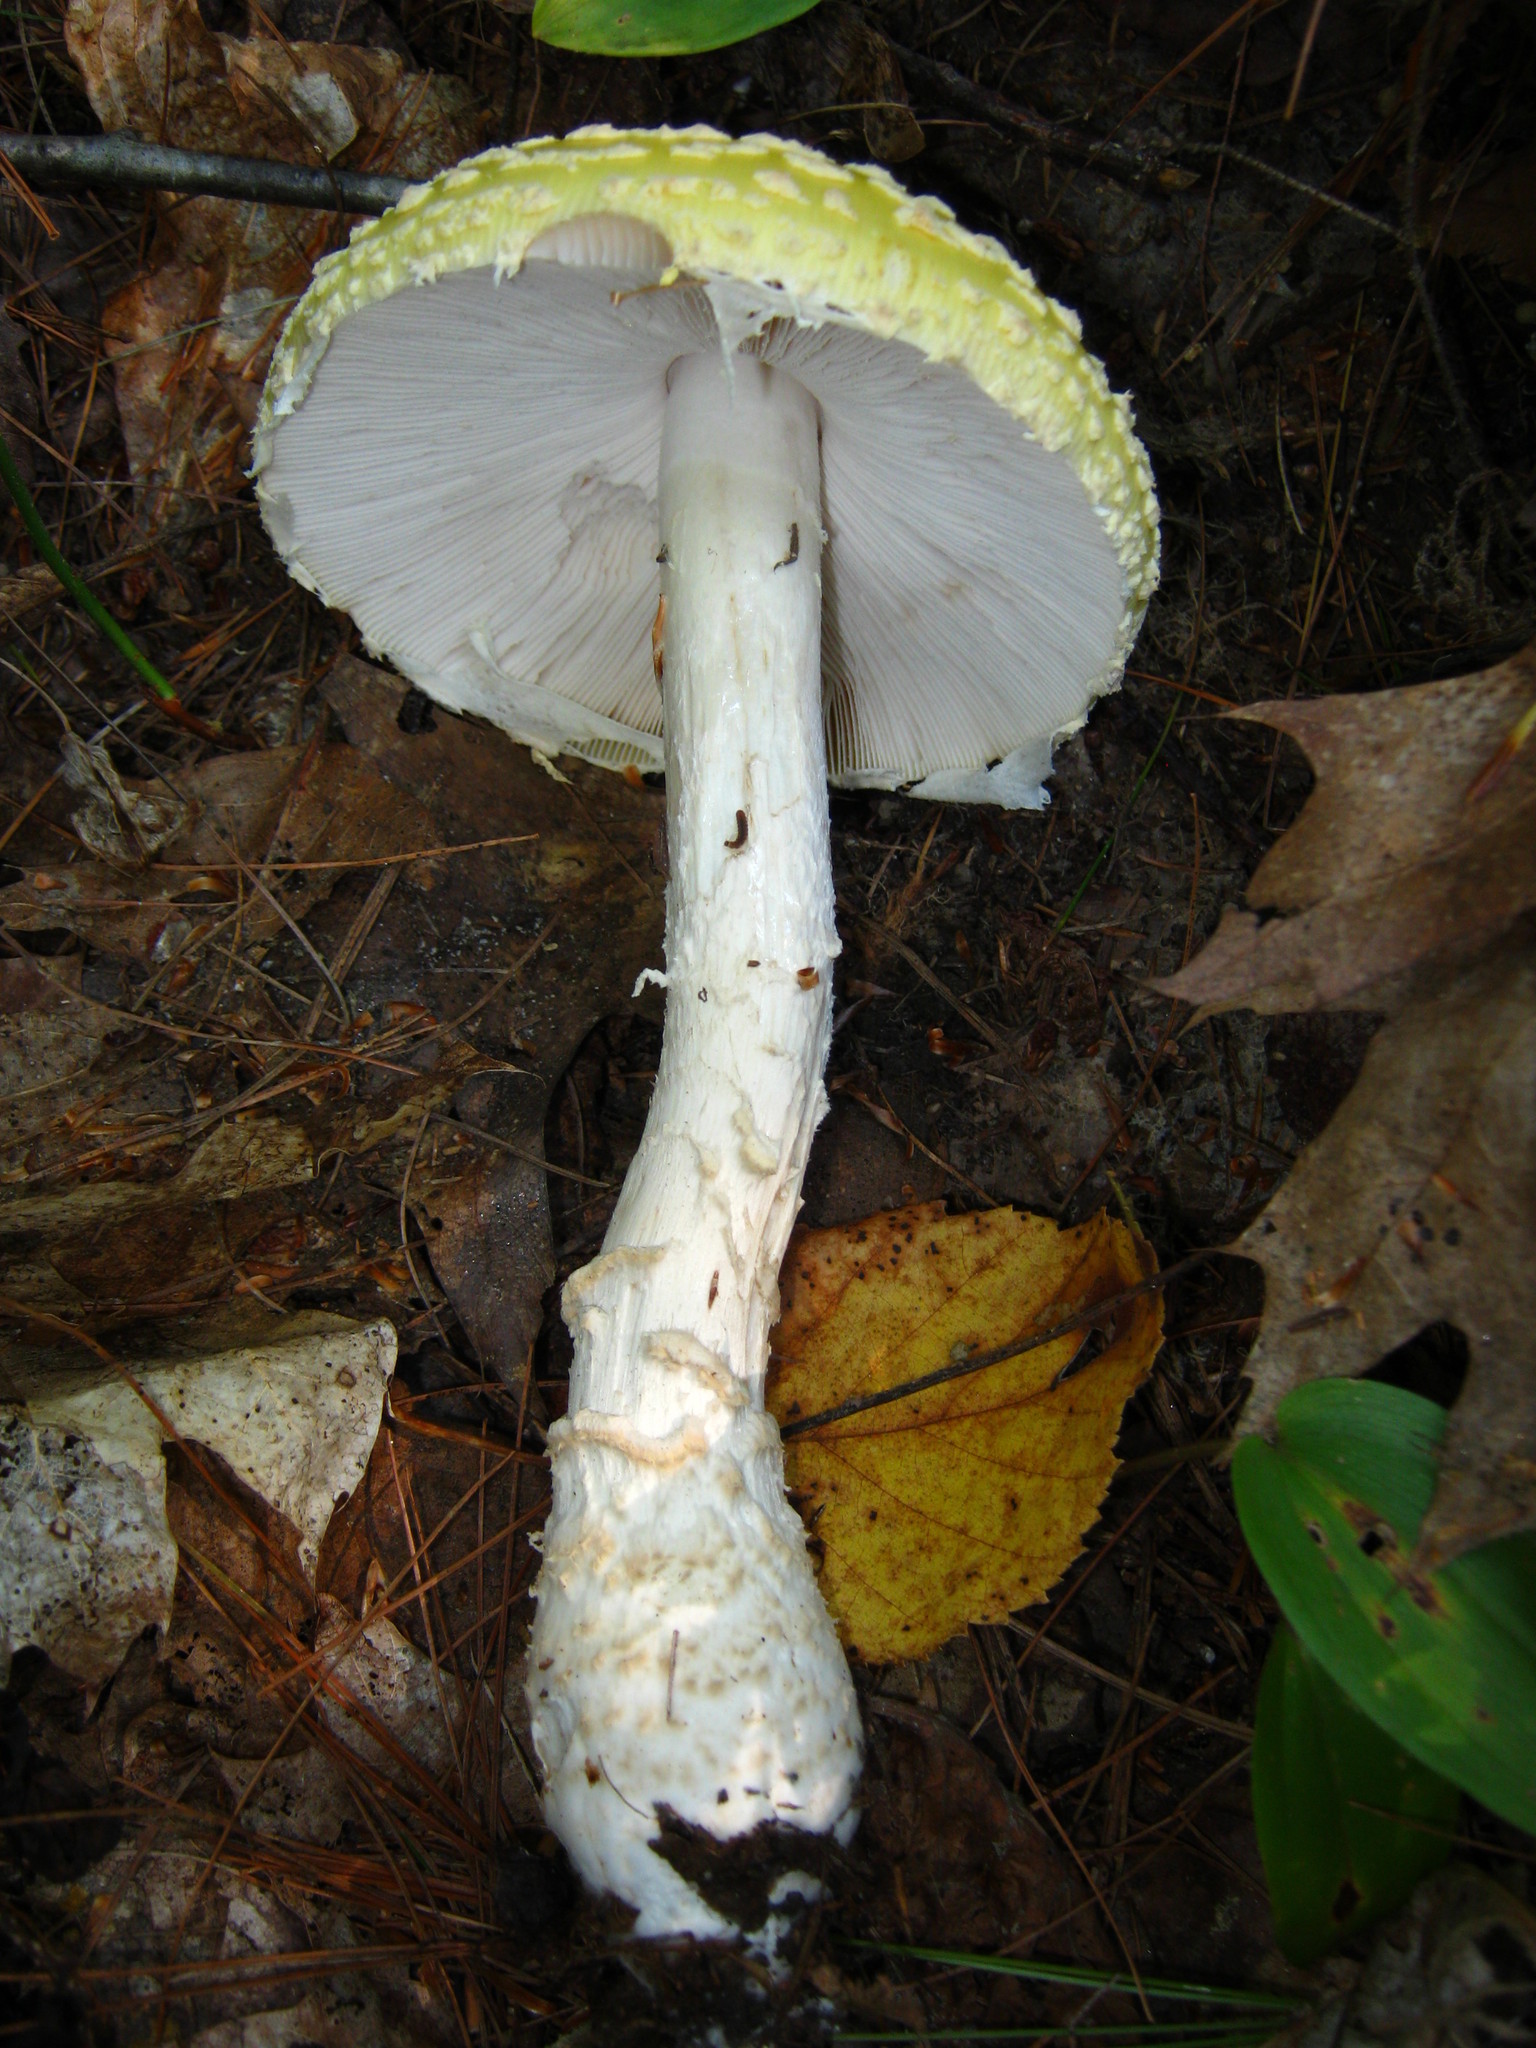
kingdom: Fungi
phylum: Basidiomycota
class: Agaricomycetes
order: Agaricales
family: Amanitaceae
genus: Amanita
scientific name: Amanita muscaria
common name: Fly agaric
